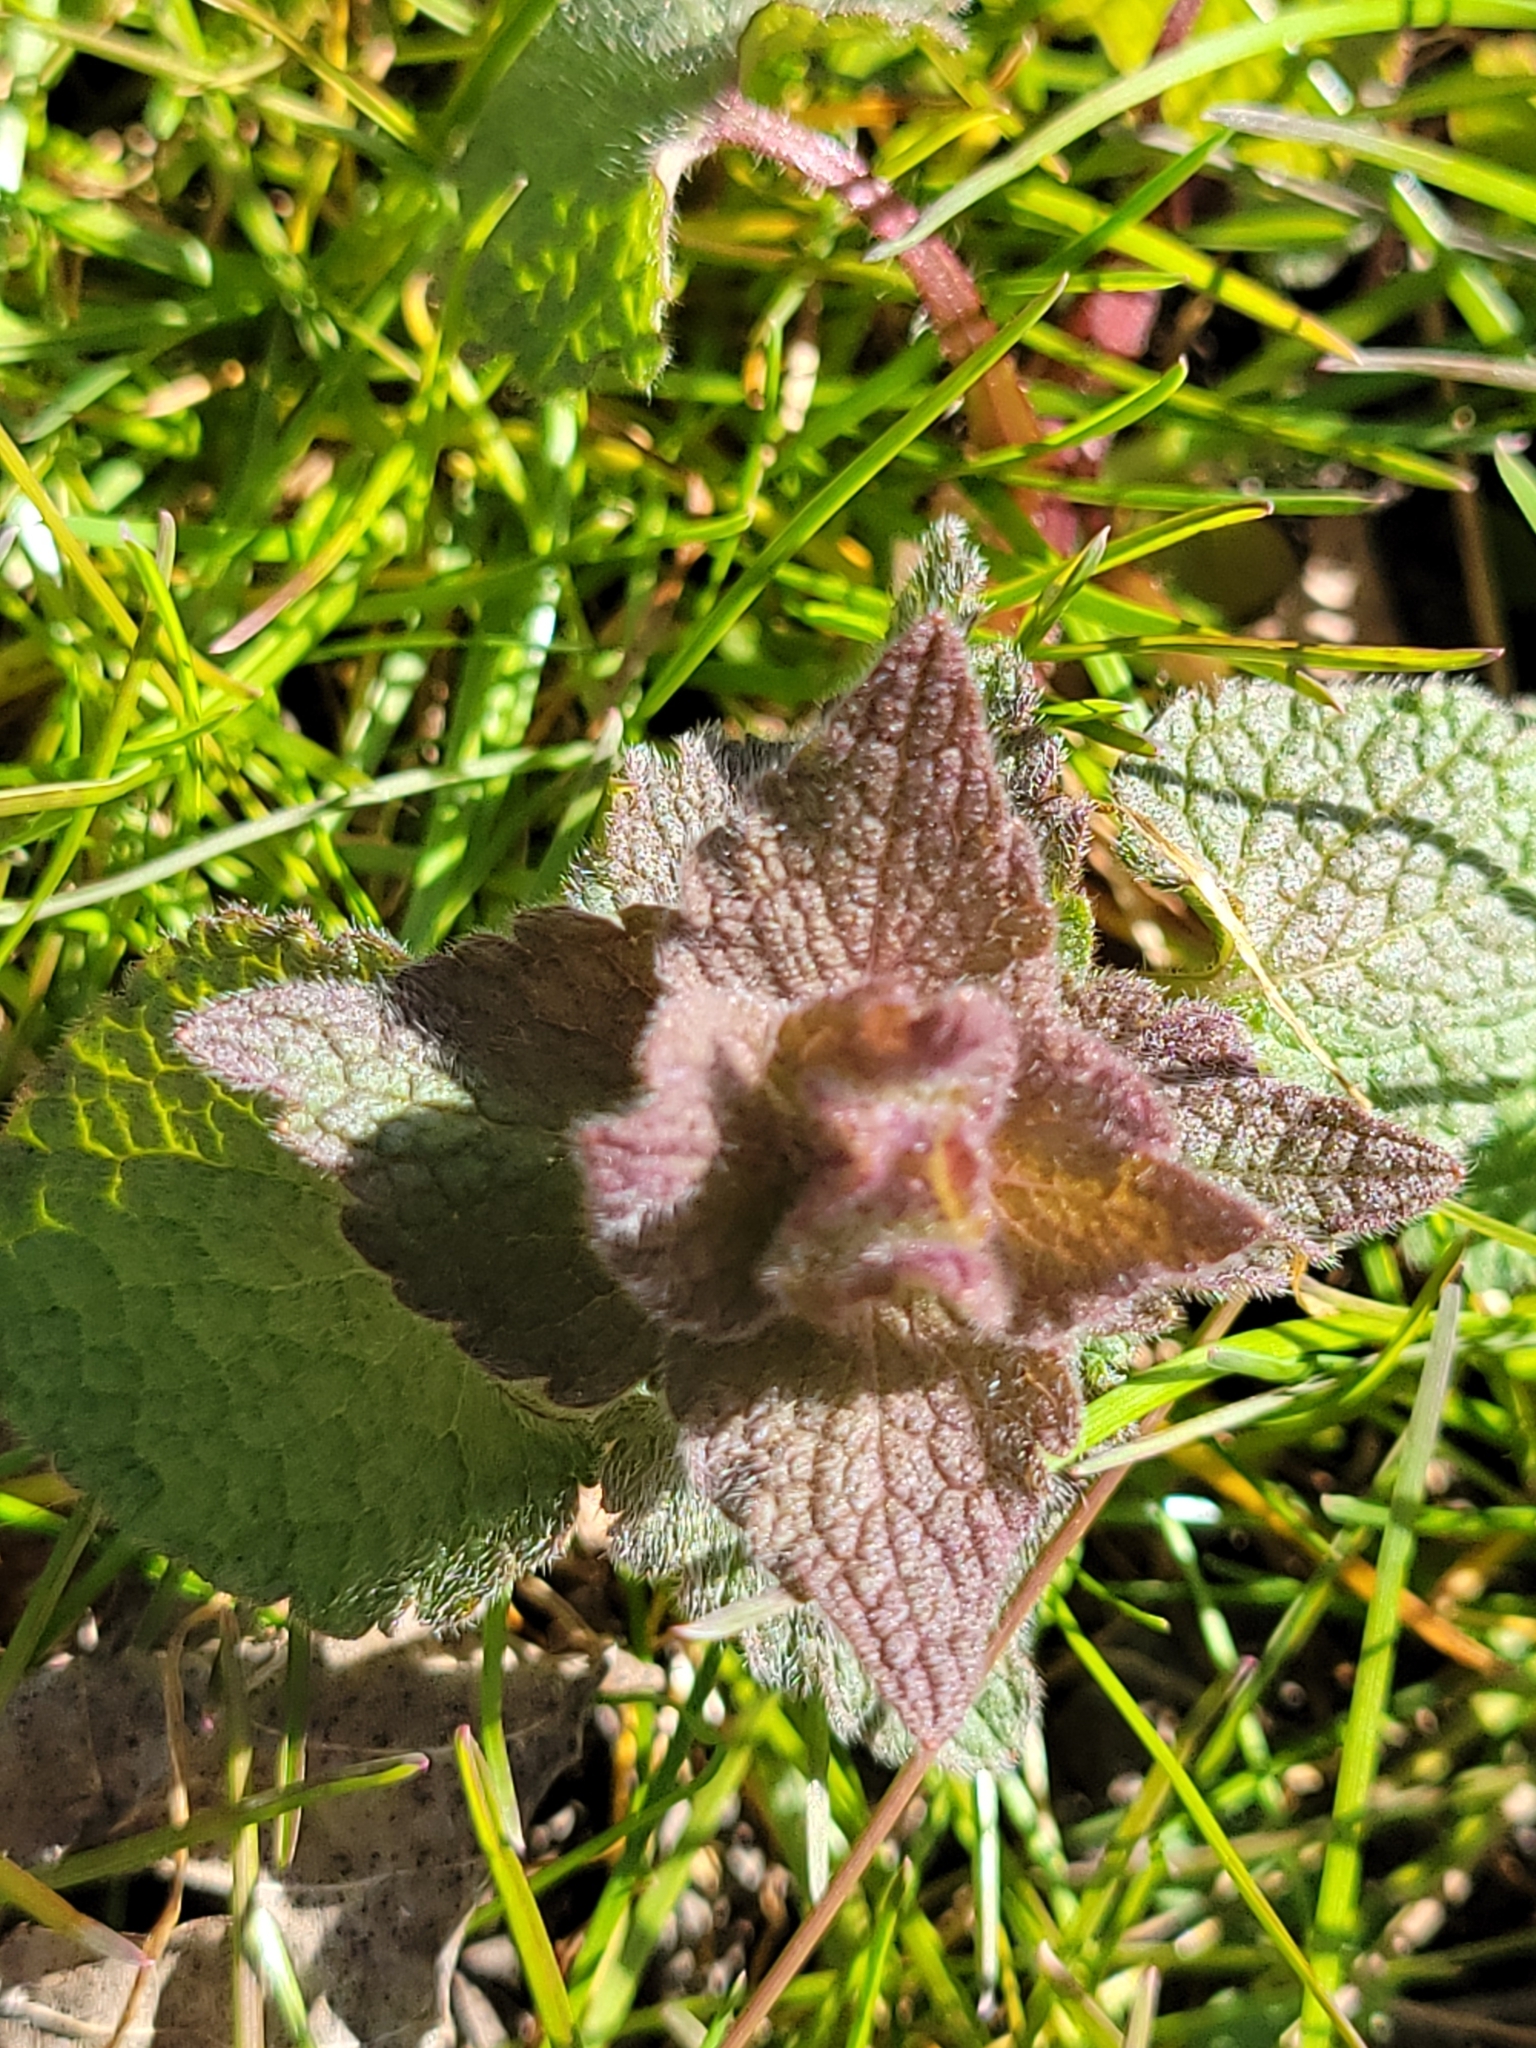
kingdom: Plantae
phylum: Tracheophyta
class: Magnoliopsida
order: Lamiales
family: Lamiaceae
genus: Lamium
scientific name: Lamium purpureum
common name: Red dead-nettle
